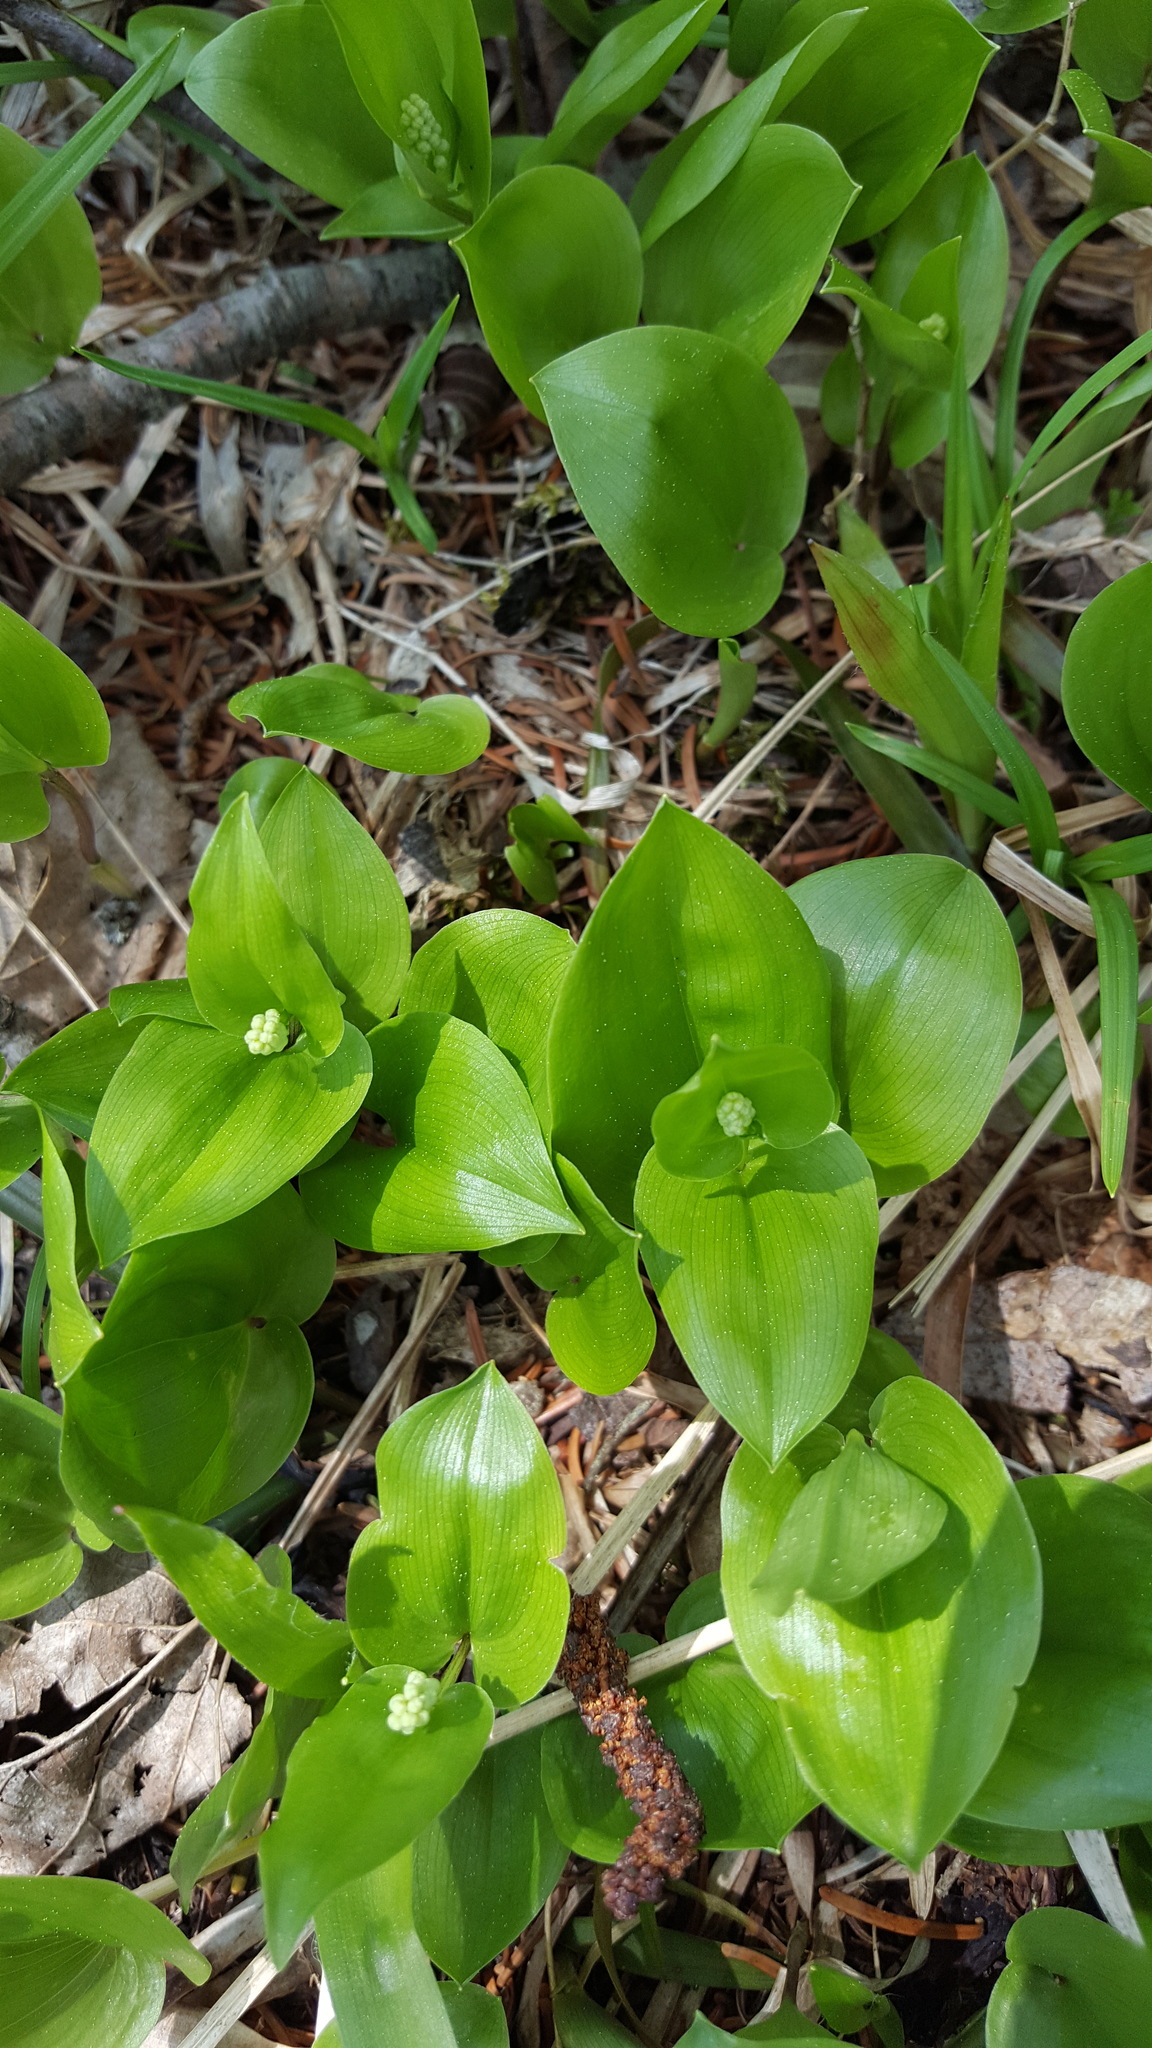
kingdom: Plantae
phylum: Tracheophyta
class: Liliopsida
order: Asparagales
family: Asparagaceae
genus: Maianthemum
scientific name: Maianthemum canadense
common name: False lily-of-the-valley
